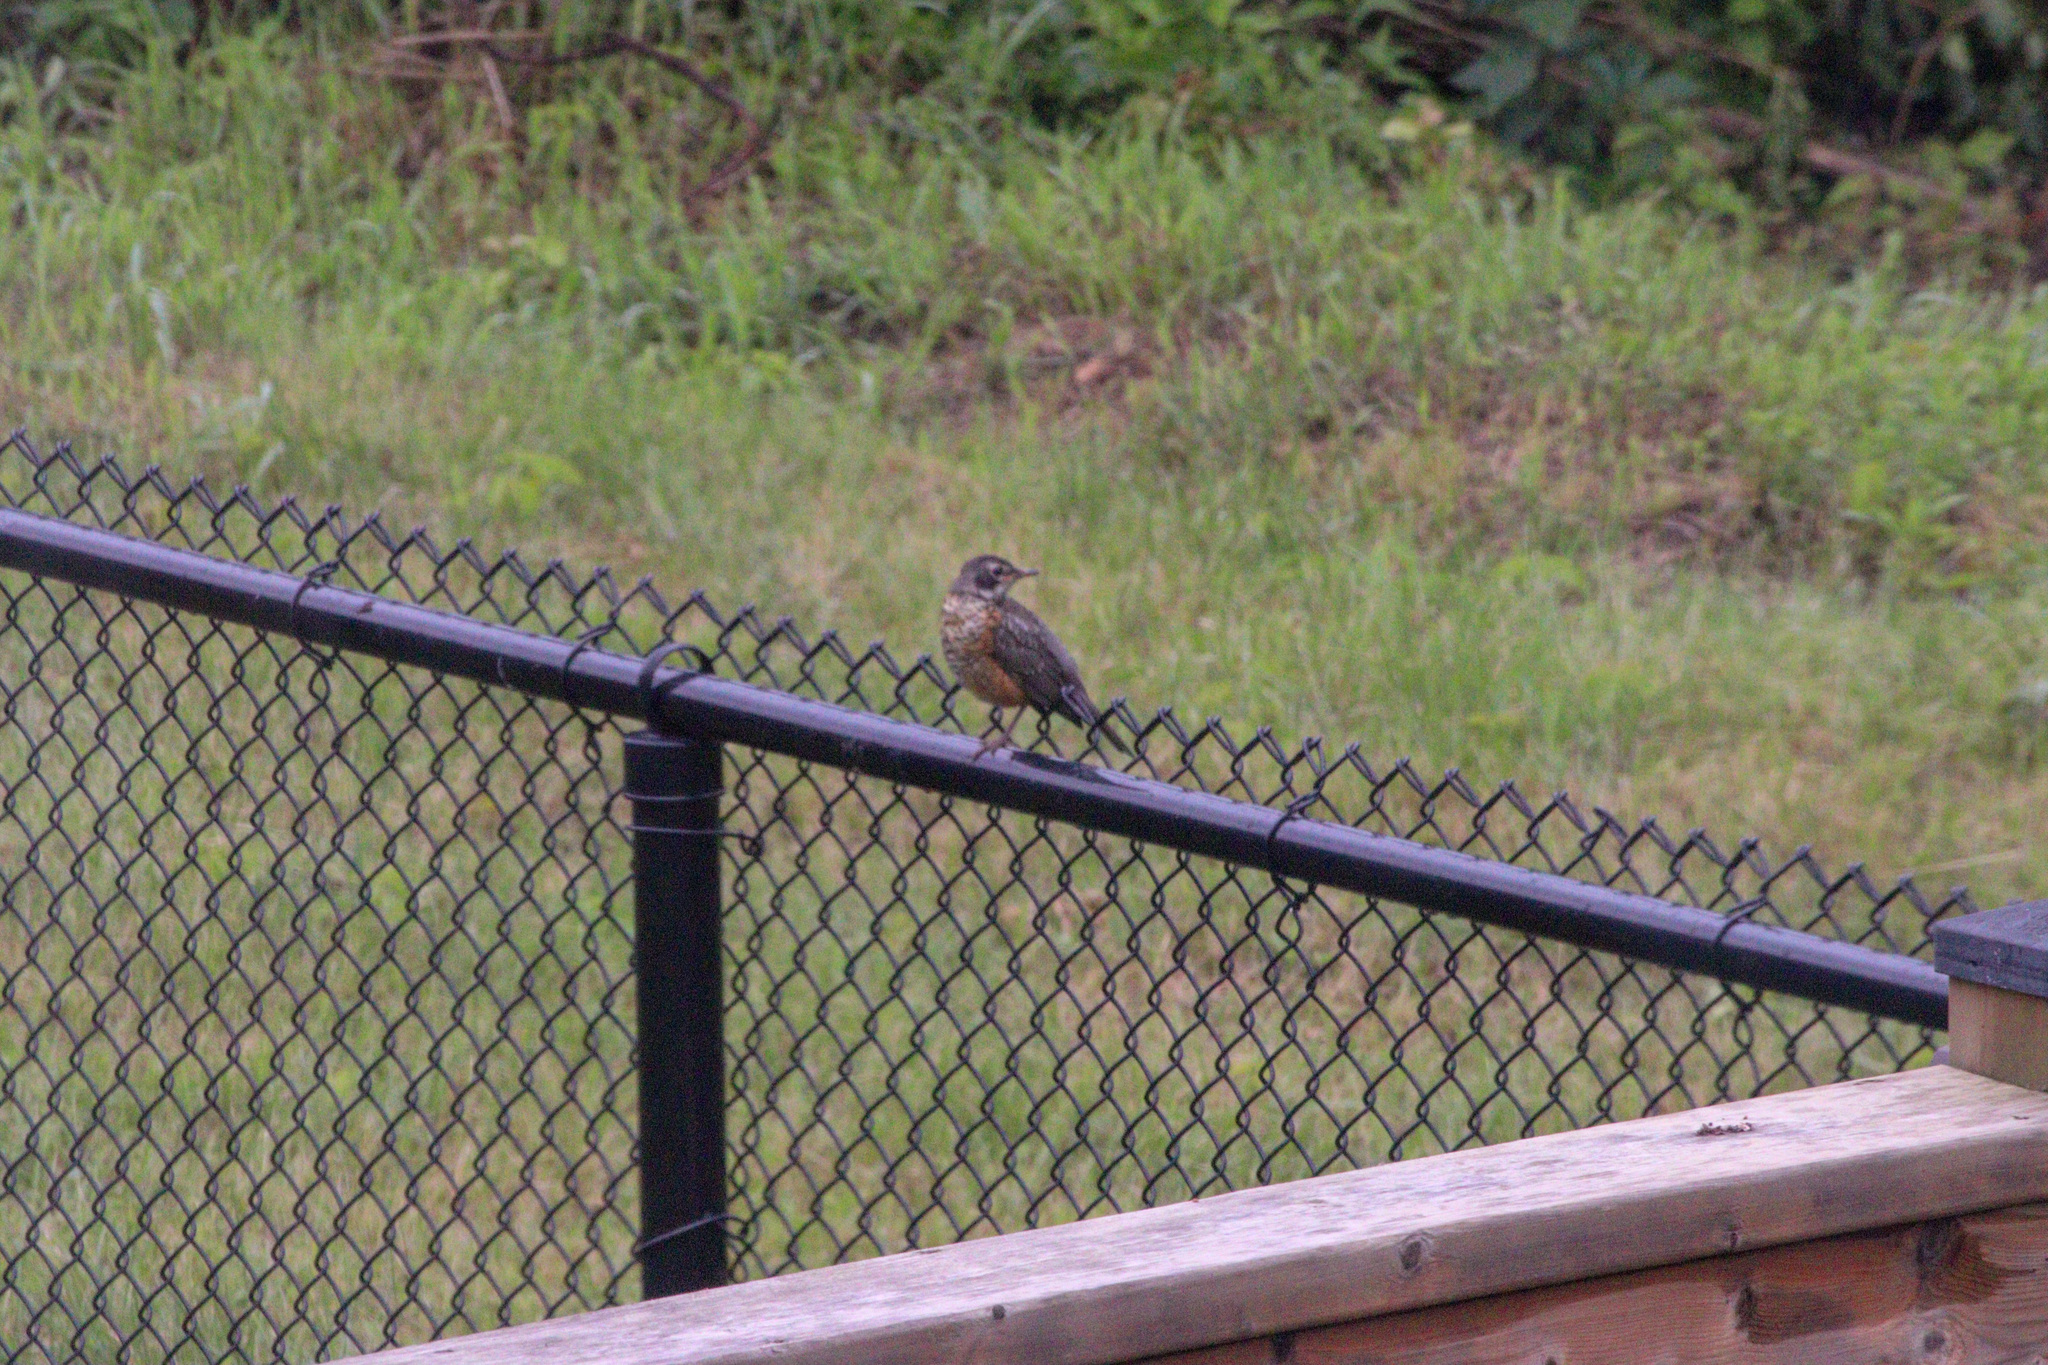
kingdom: Animalia
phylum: Chordata
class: Aves
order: Passeriformes
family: Turdidae
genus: Turdus
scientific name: Turdus migratorius
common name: American robin
